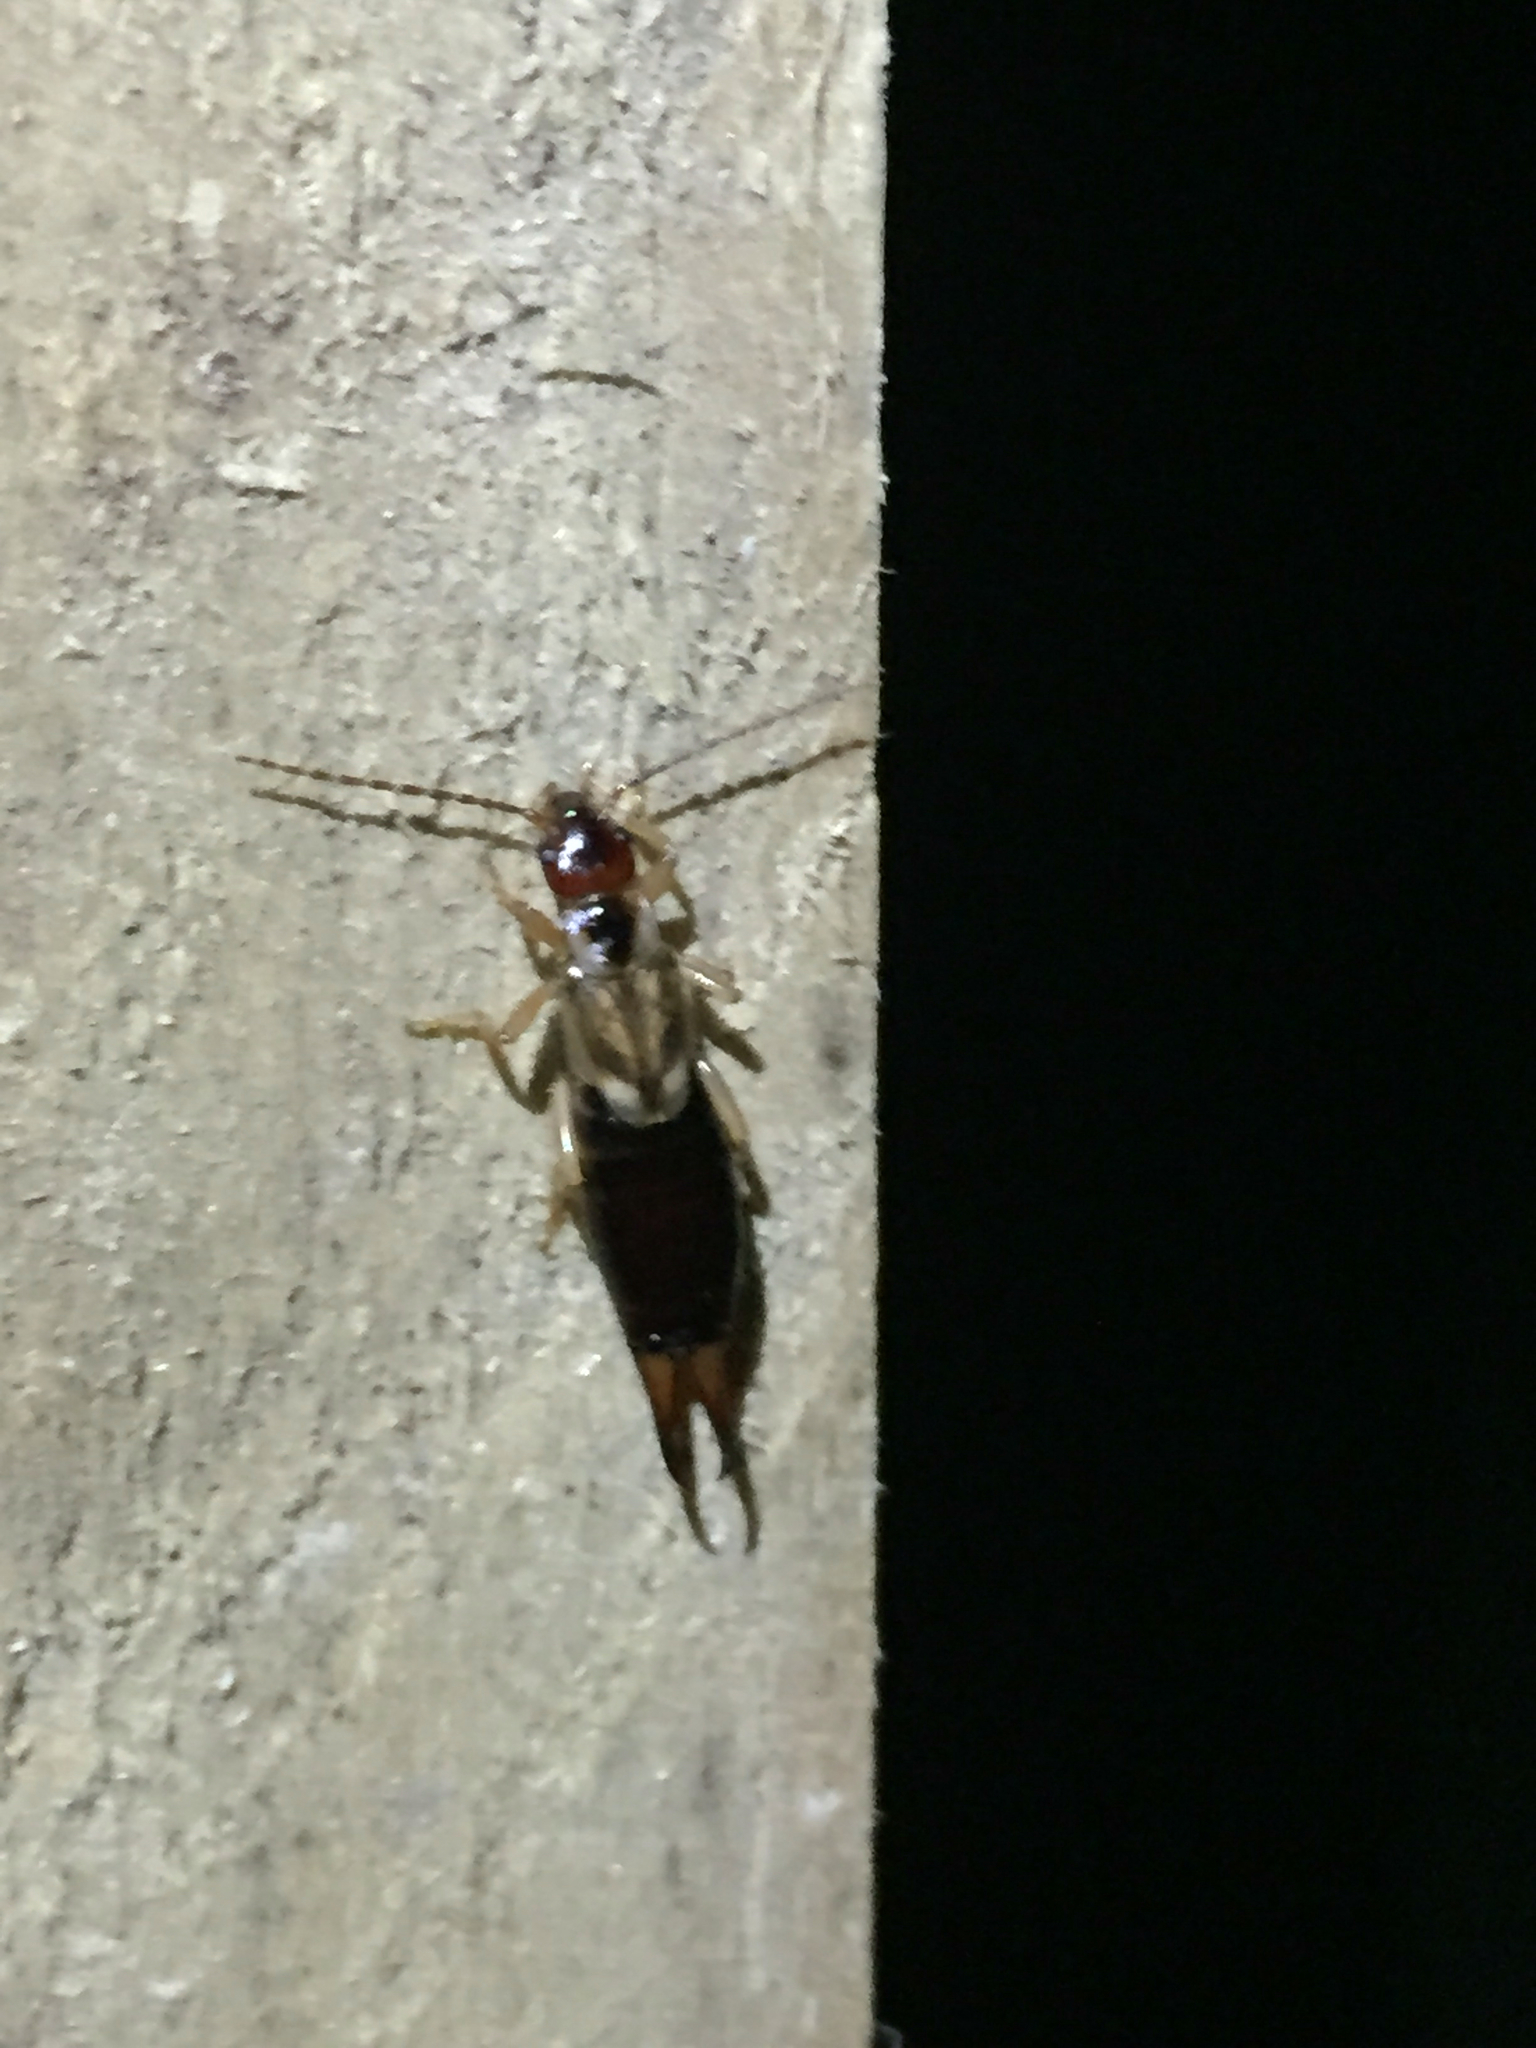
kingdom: Animalia
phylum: Arthropoda
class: Insecta
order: Dermaptera
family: Forficulidae
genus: Forficula
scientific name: Forficula
